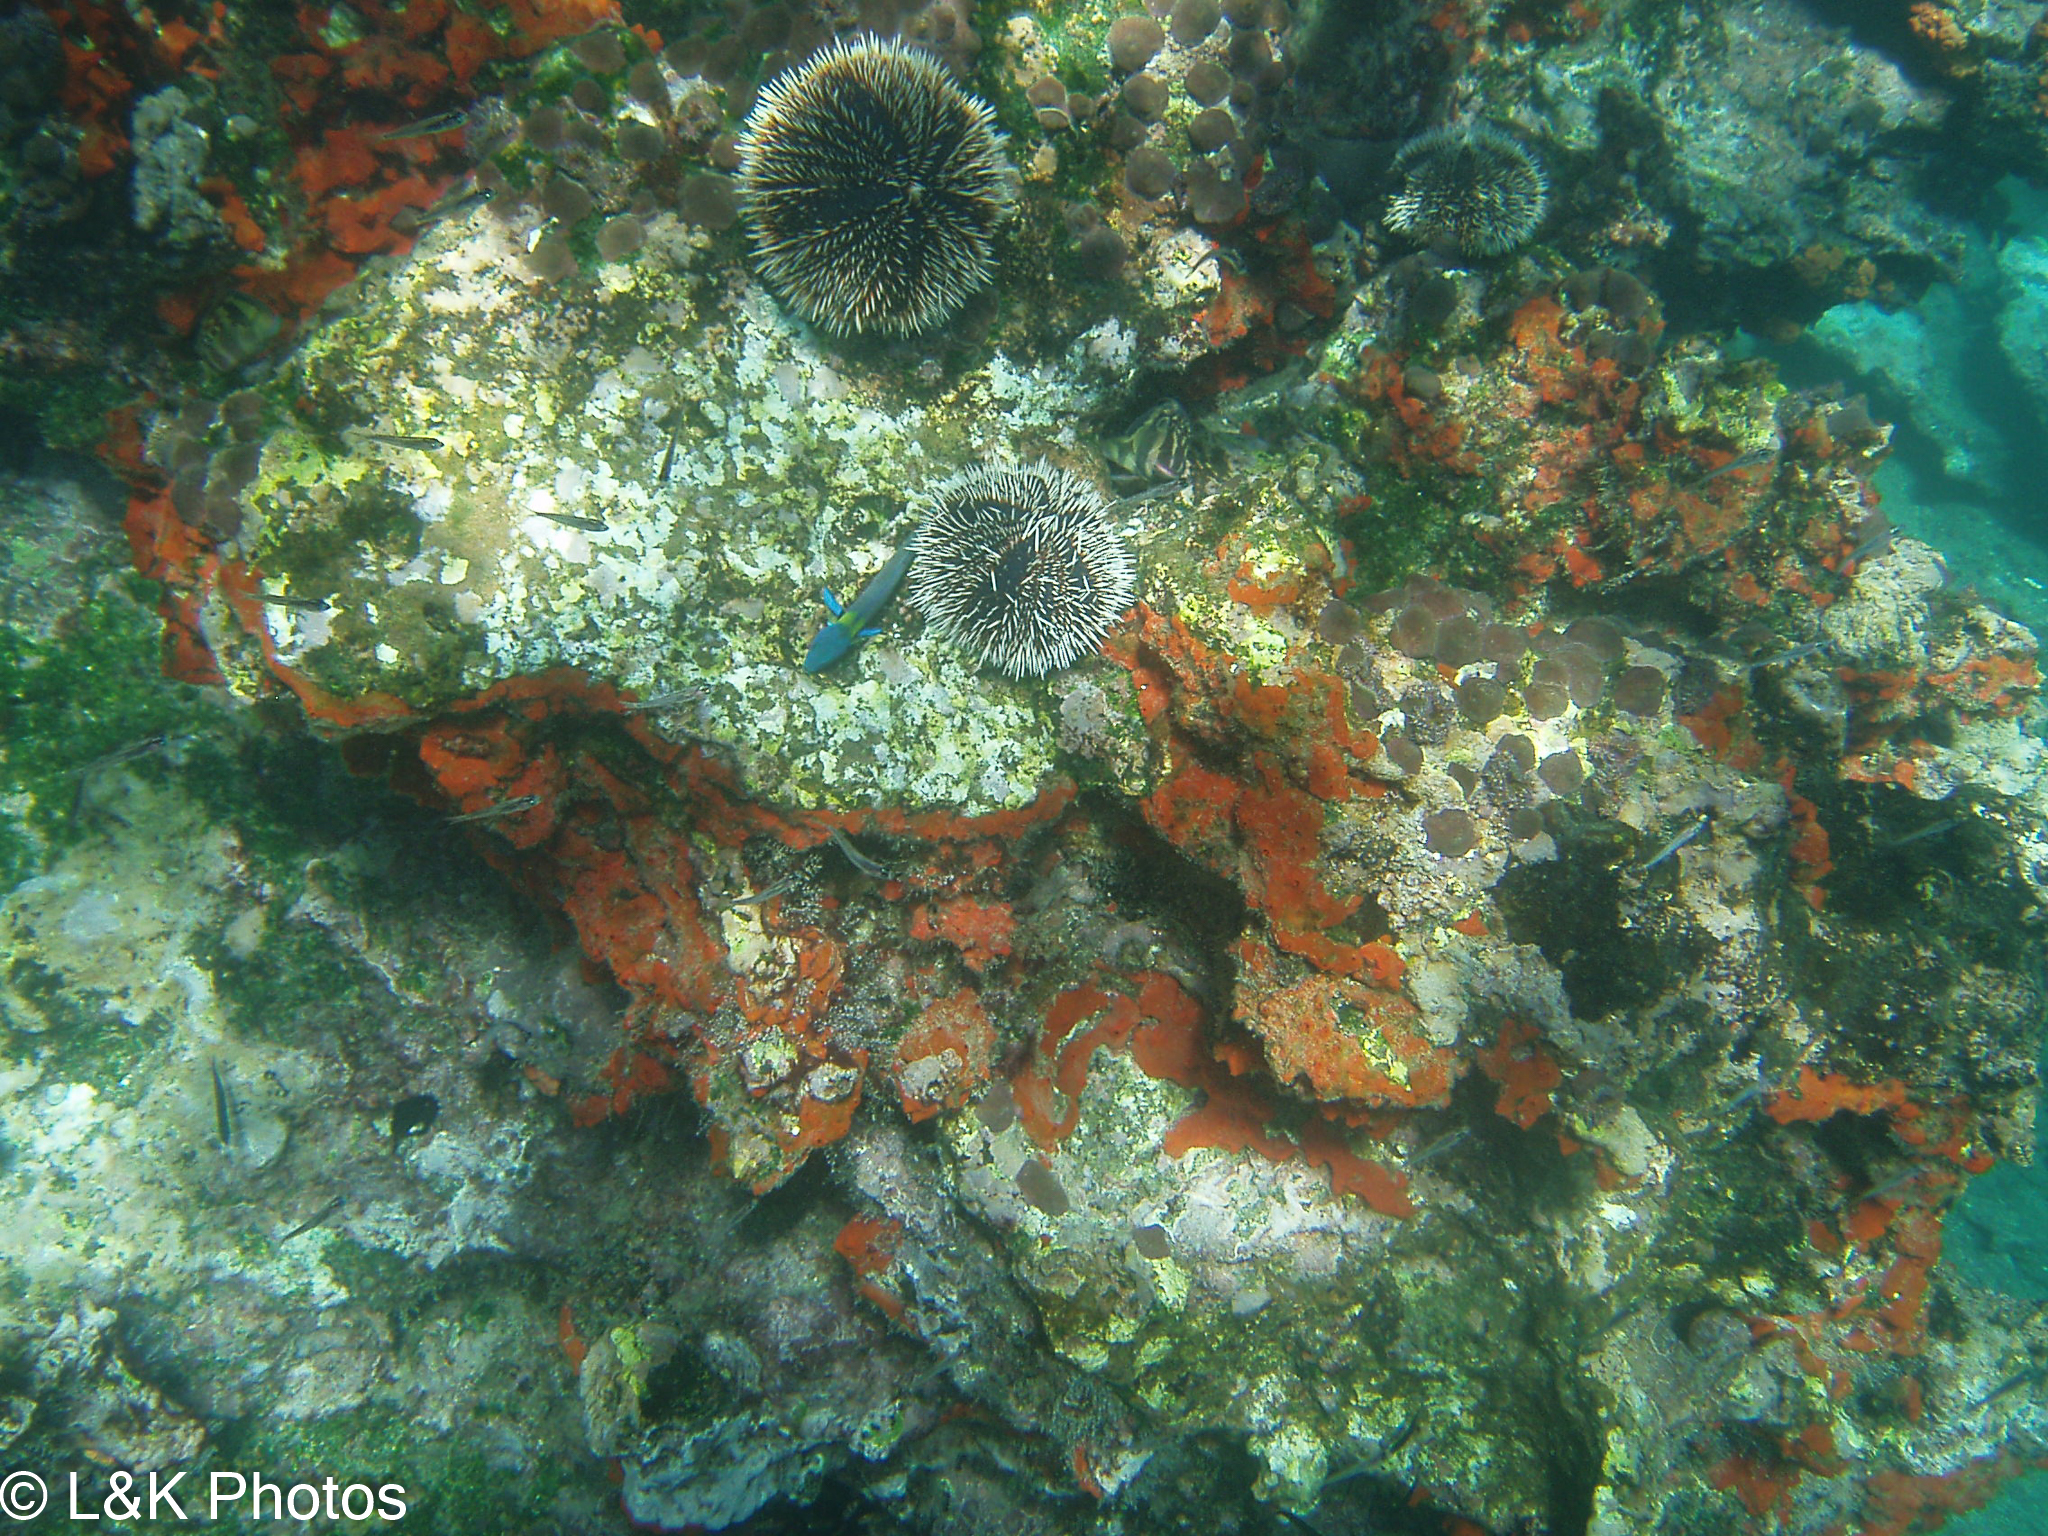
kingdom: Animalia
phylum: Echinodermata
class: Echinoidea
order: Camarodonta
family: Toxopneustidae
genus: Tripneustes
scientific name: Tripneustes depressus
